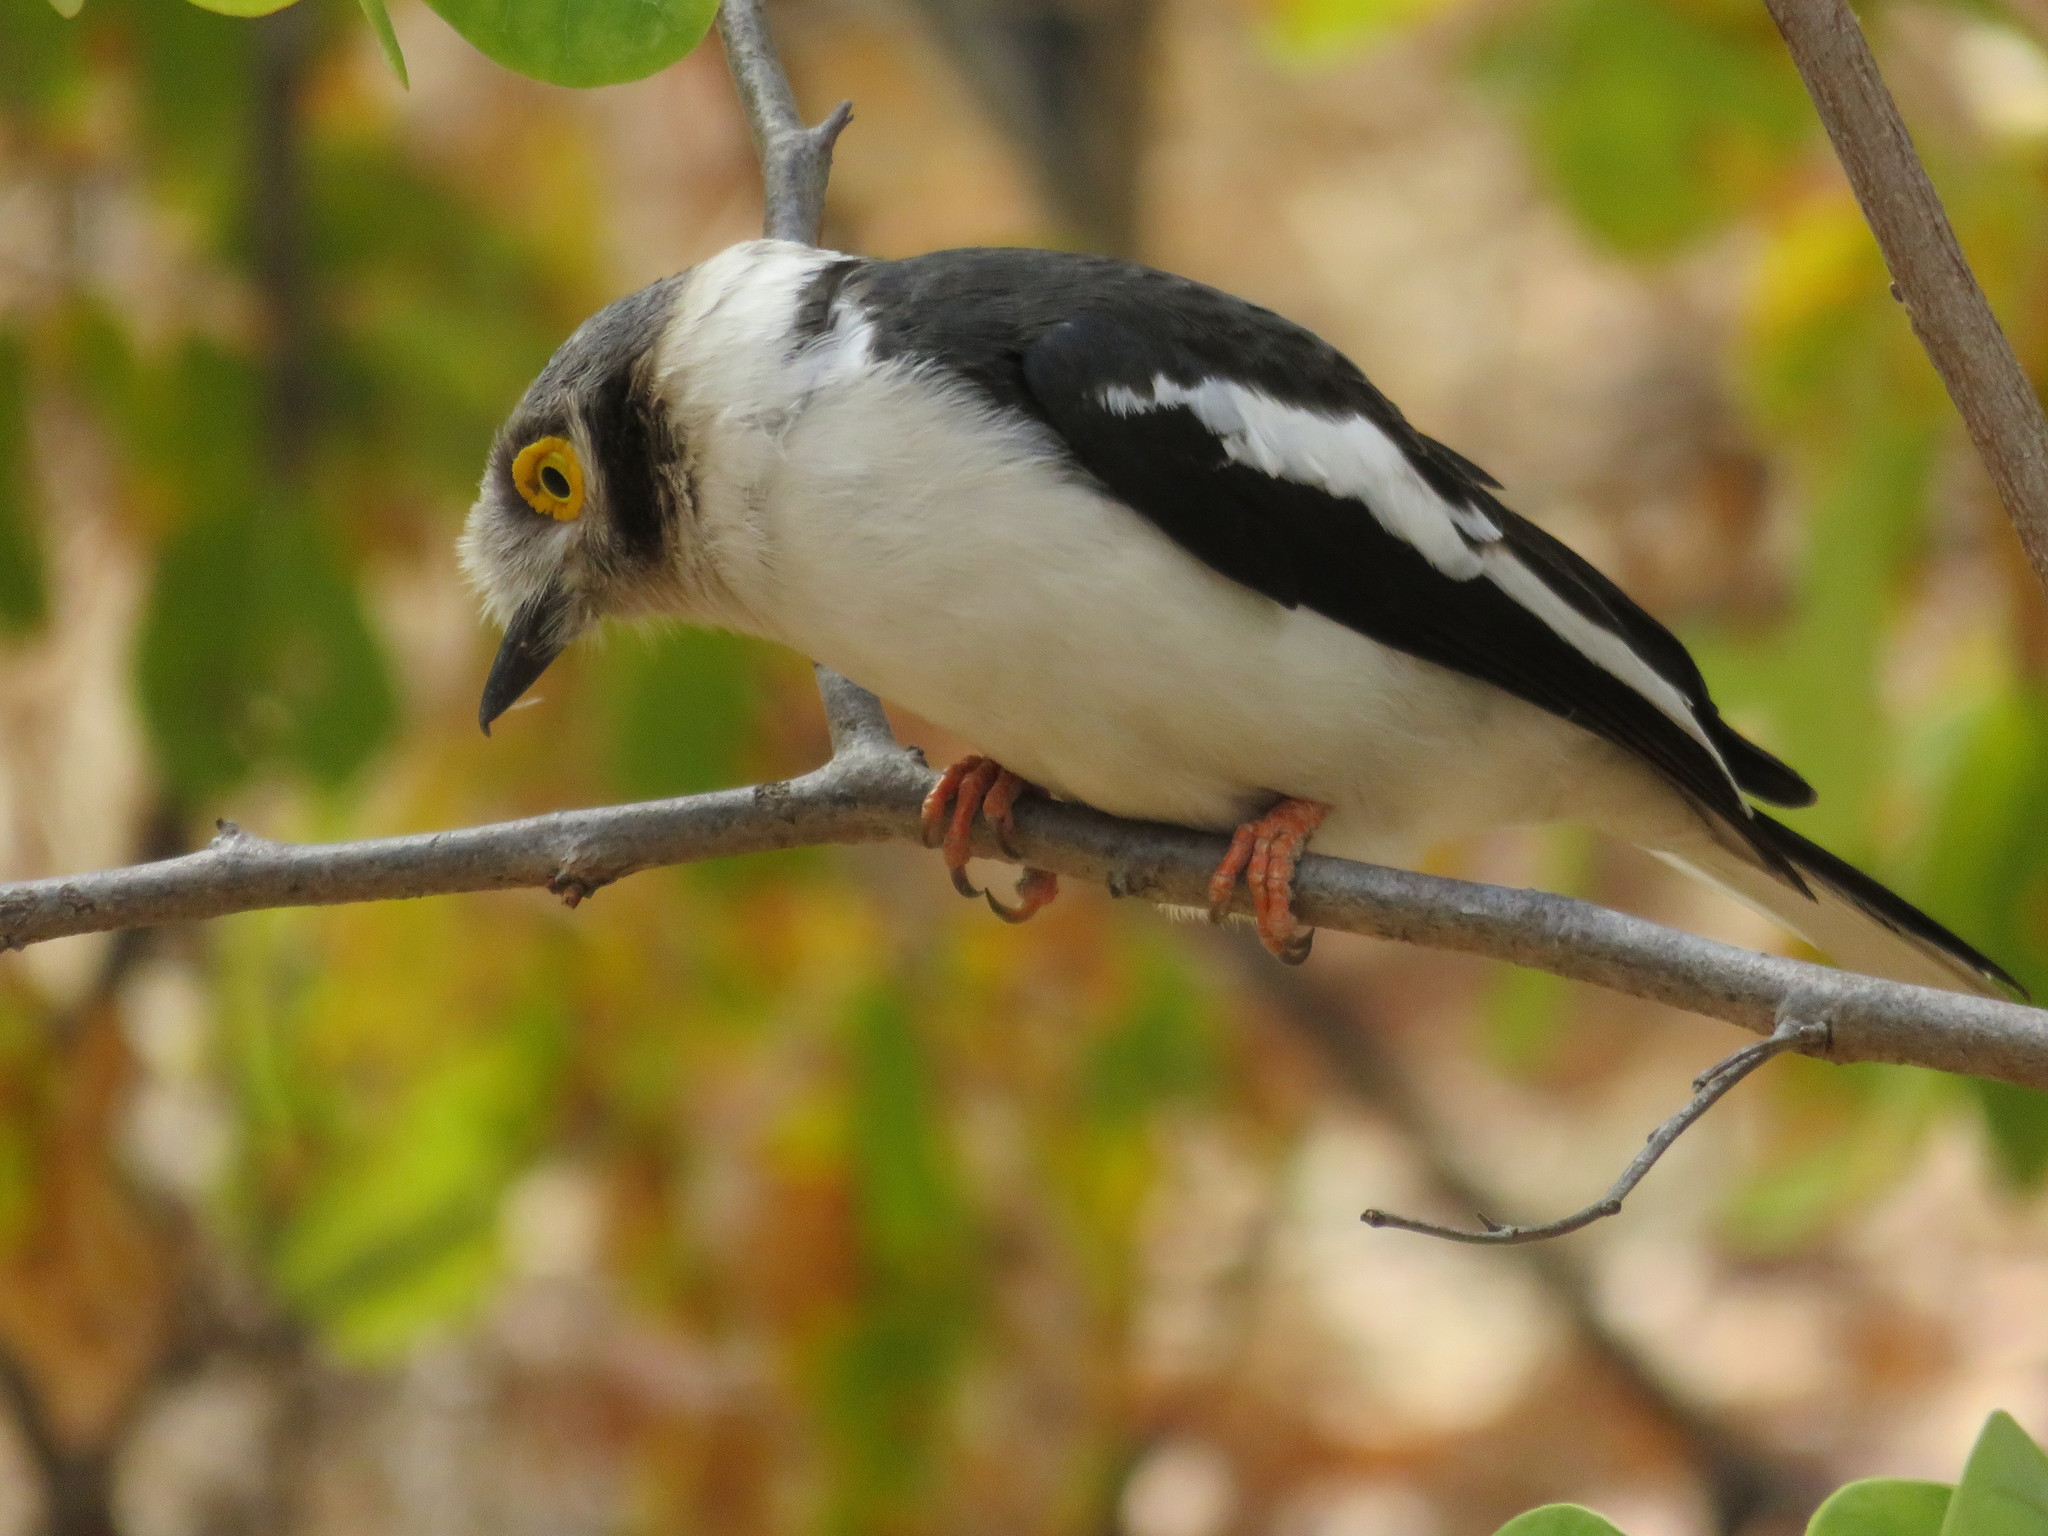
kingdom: Animalia
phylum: Chordata
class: Aves
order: Passeriformes
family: Prionopidae
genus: Prionops
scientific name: Prionops plumatus
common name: White-crested helmetshrike
